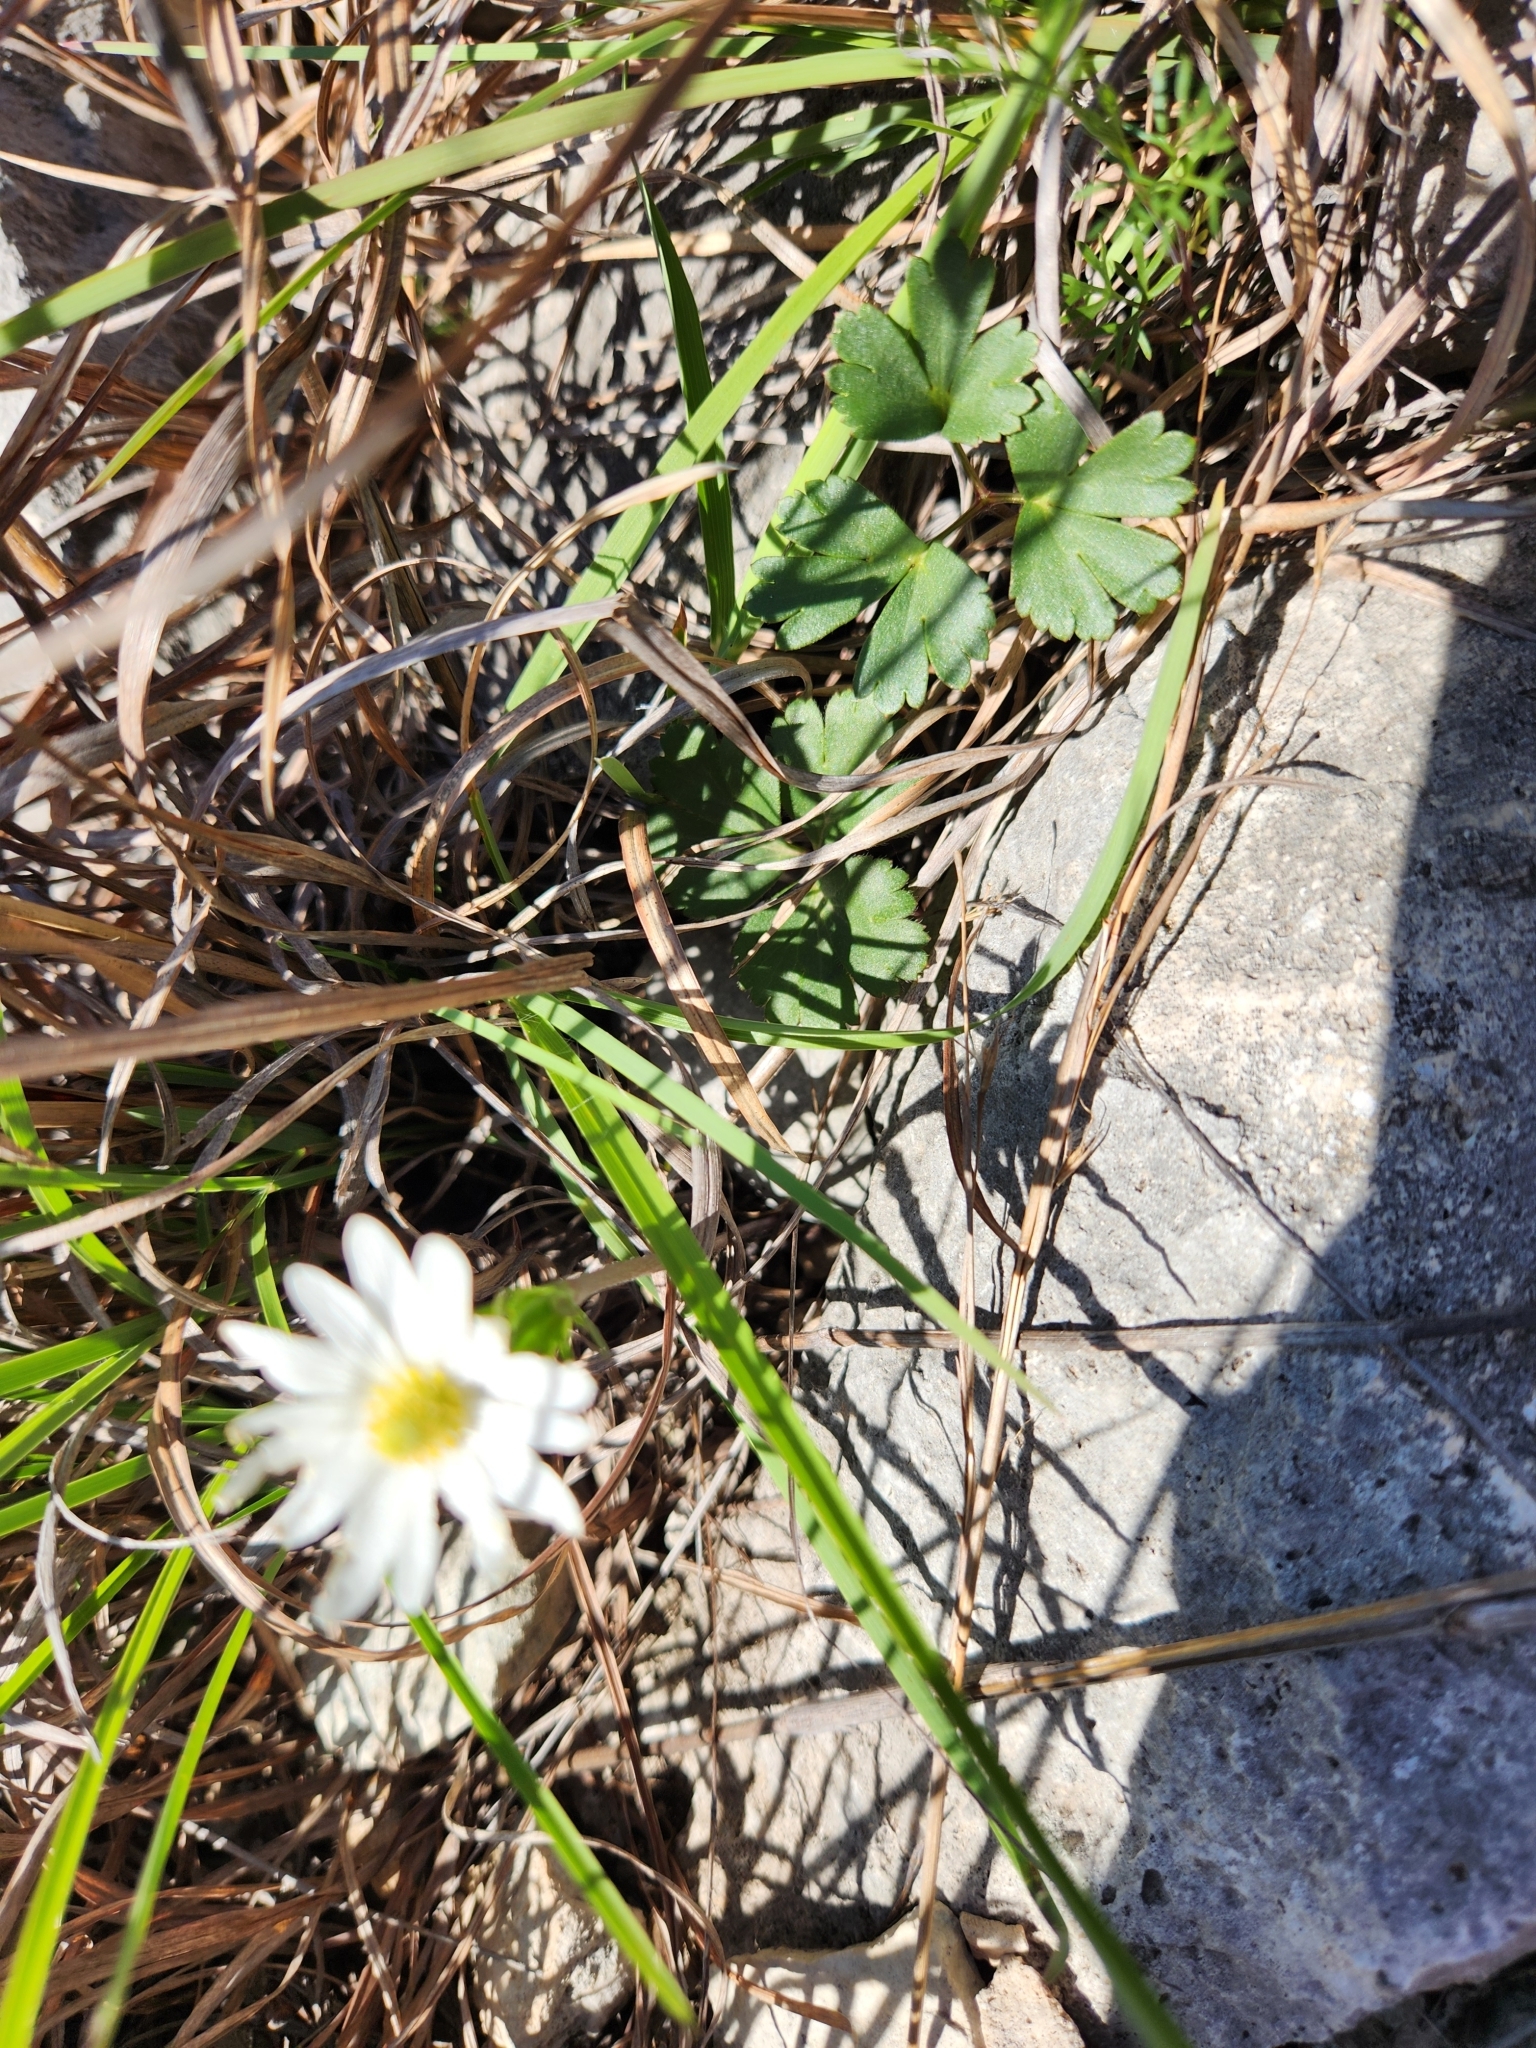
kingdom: Plantae
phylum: Tracheophyta
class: Magnoliopsida
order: Ranunculales
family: Ranunculaceae
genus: Anemone
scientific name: Anemone berlandieri
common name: Ten-petal anemone
